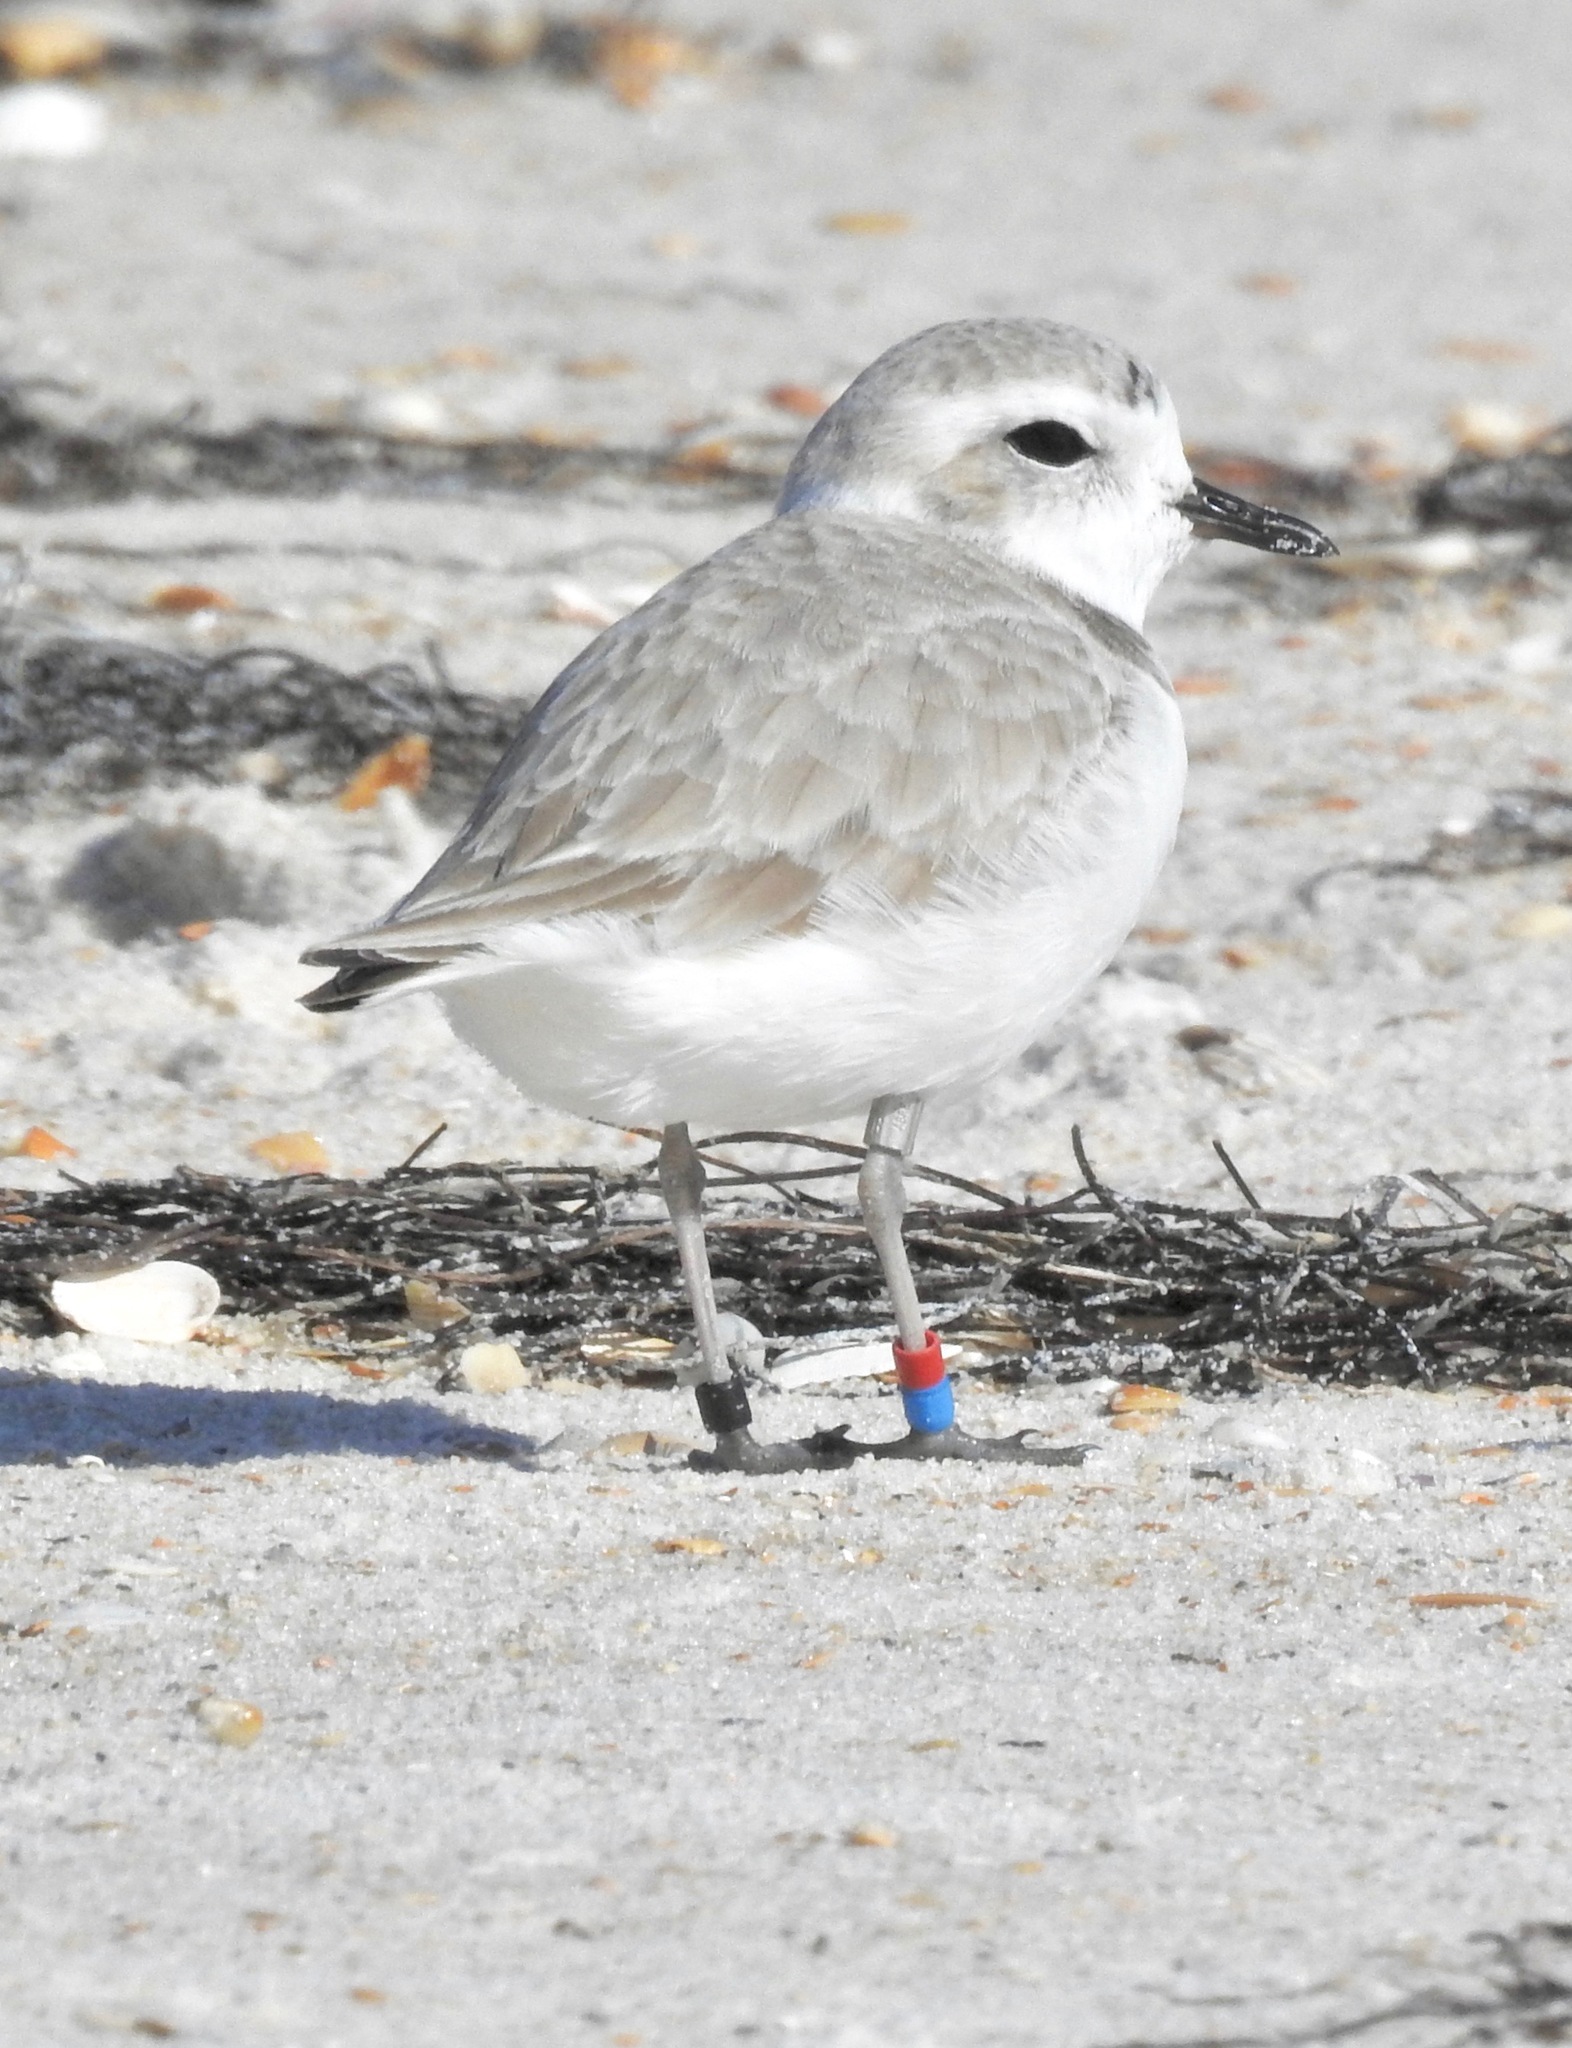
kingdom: Animalia
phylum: Chordata
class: Aves
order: Charadriiformes
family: Charadriidae
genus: Anarhynchus
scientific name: Anarhynchus
